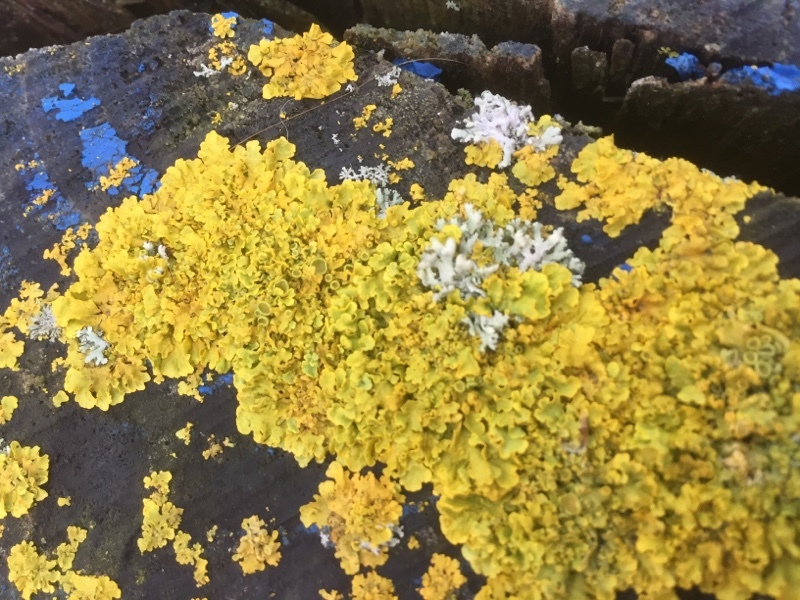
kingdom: Fungi
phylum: Ascomycota
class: Lecanoromycetes
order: Teloschistales
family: Teloschistaceae
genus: Xanthoria
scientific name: Xanthoria parietina
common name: Common orange lichen
